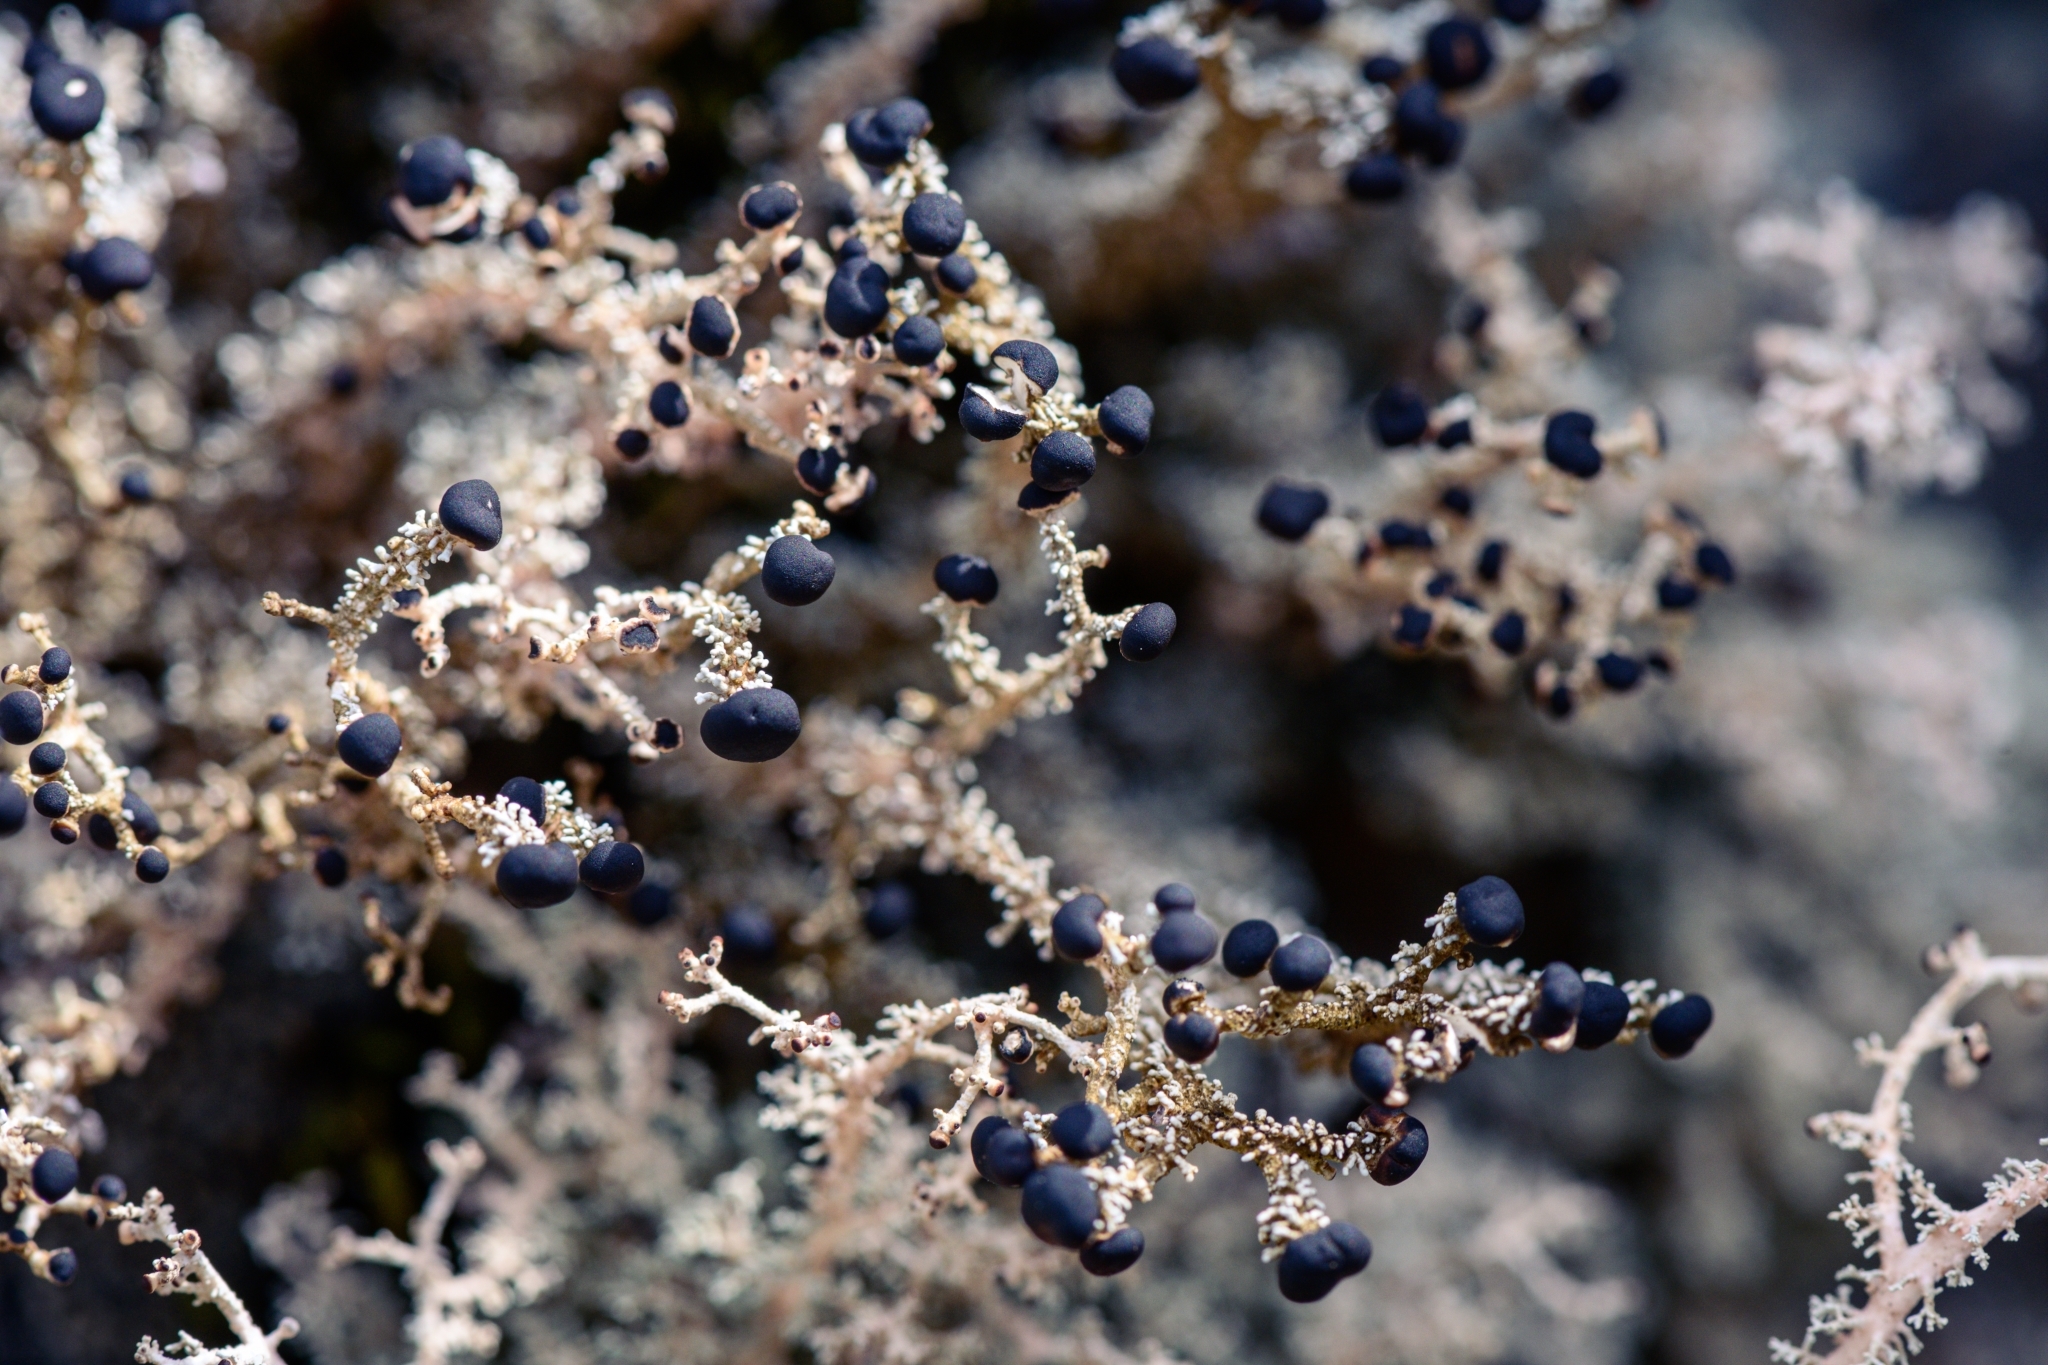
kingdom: Fungi
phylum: Ascomycota
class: Lecanoromycetes
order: Lecanorales
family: Stereocaulaceae
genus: Stereocaulon
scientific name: Stereocaulon ramulosum
